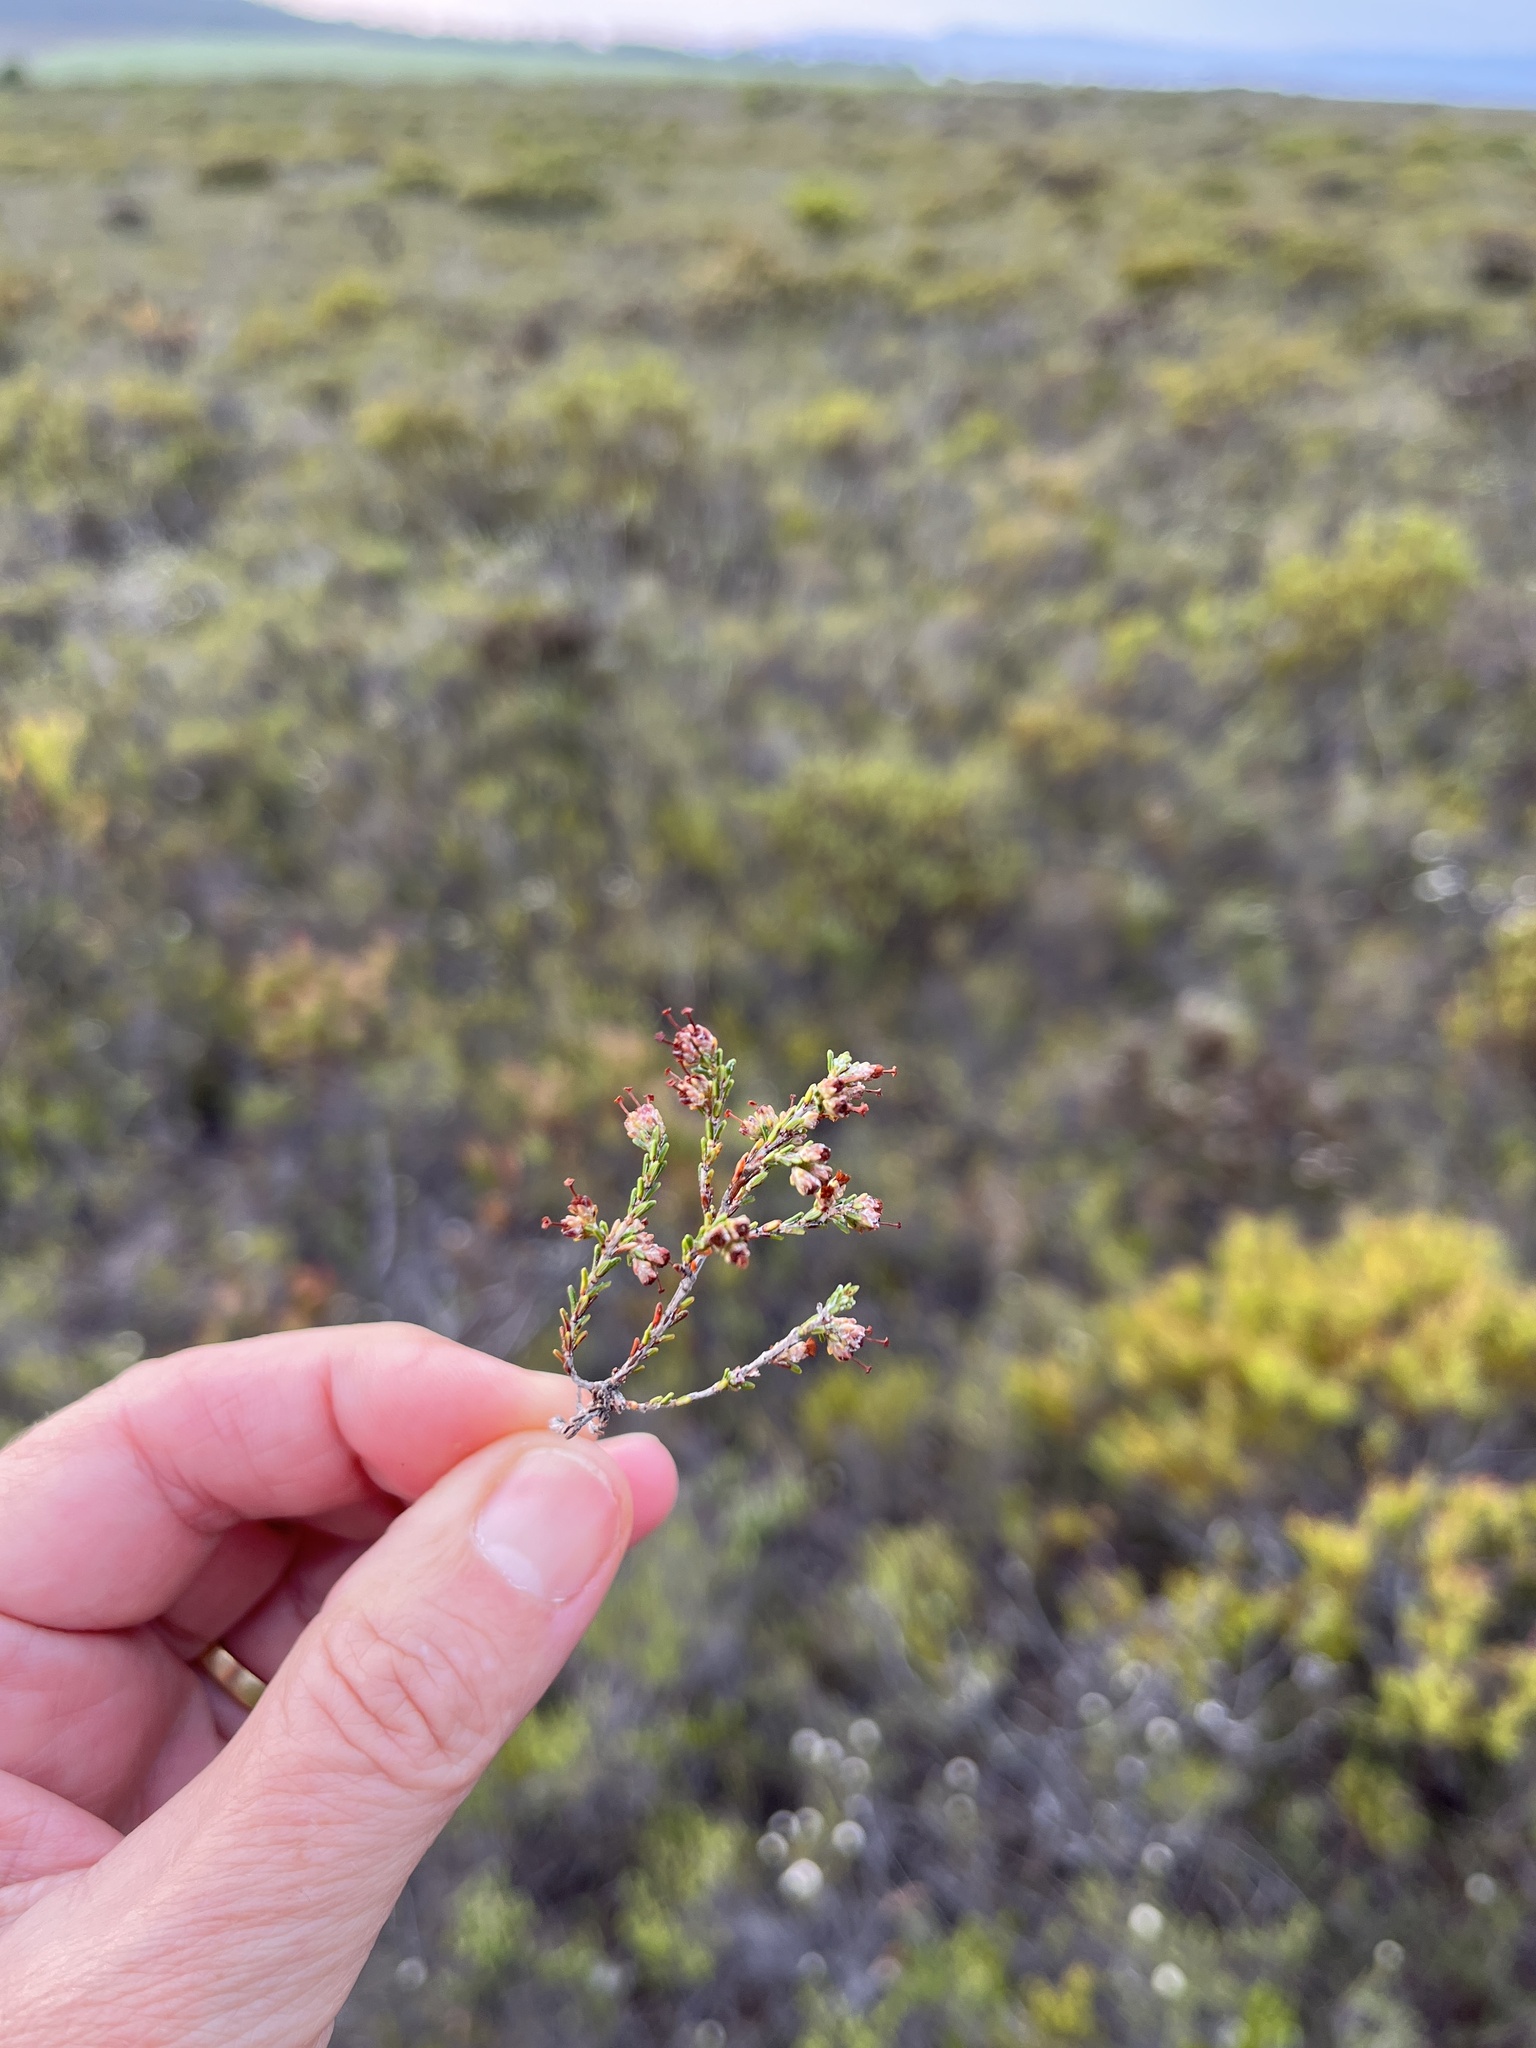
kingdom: Plantae
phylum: Tracheophyta
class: Magnoliopsida
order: Ericales
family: Ericaceae
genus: Erica
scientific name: Erica lasciva
